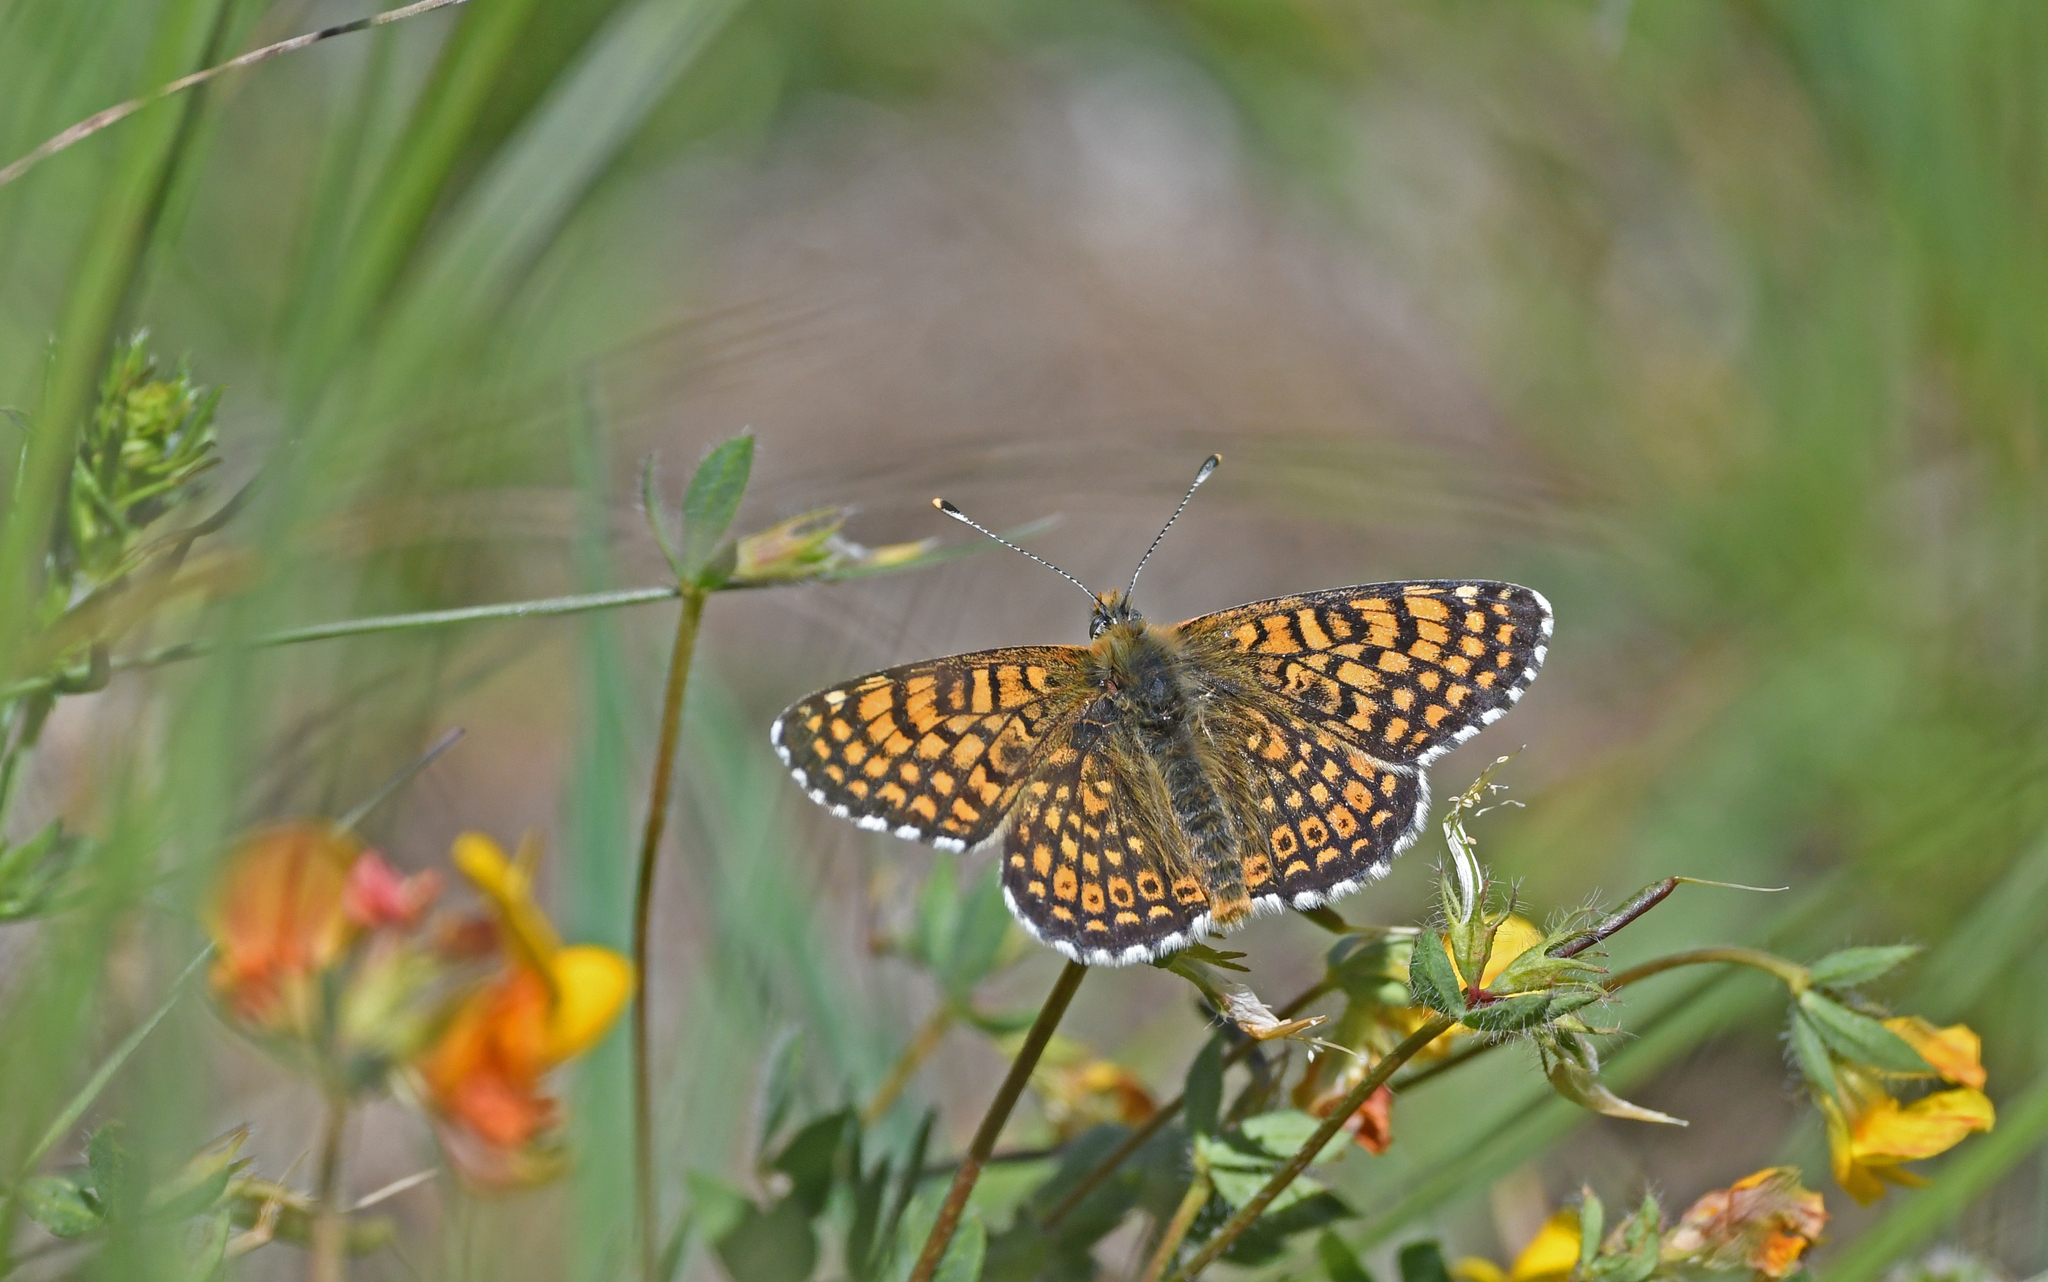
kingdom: Animalia
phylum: Arthropoda
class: Insecta
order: Lepidoptera
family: Nymphalidae
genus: Melitaea
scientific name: Melitaea cinxia
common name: Glanville fritillary
